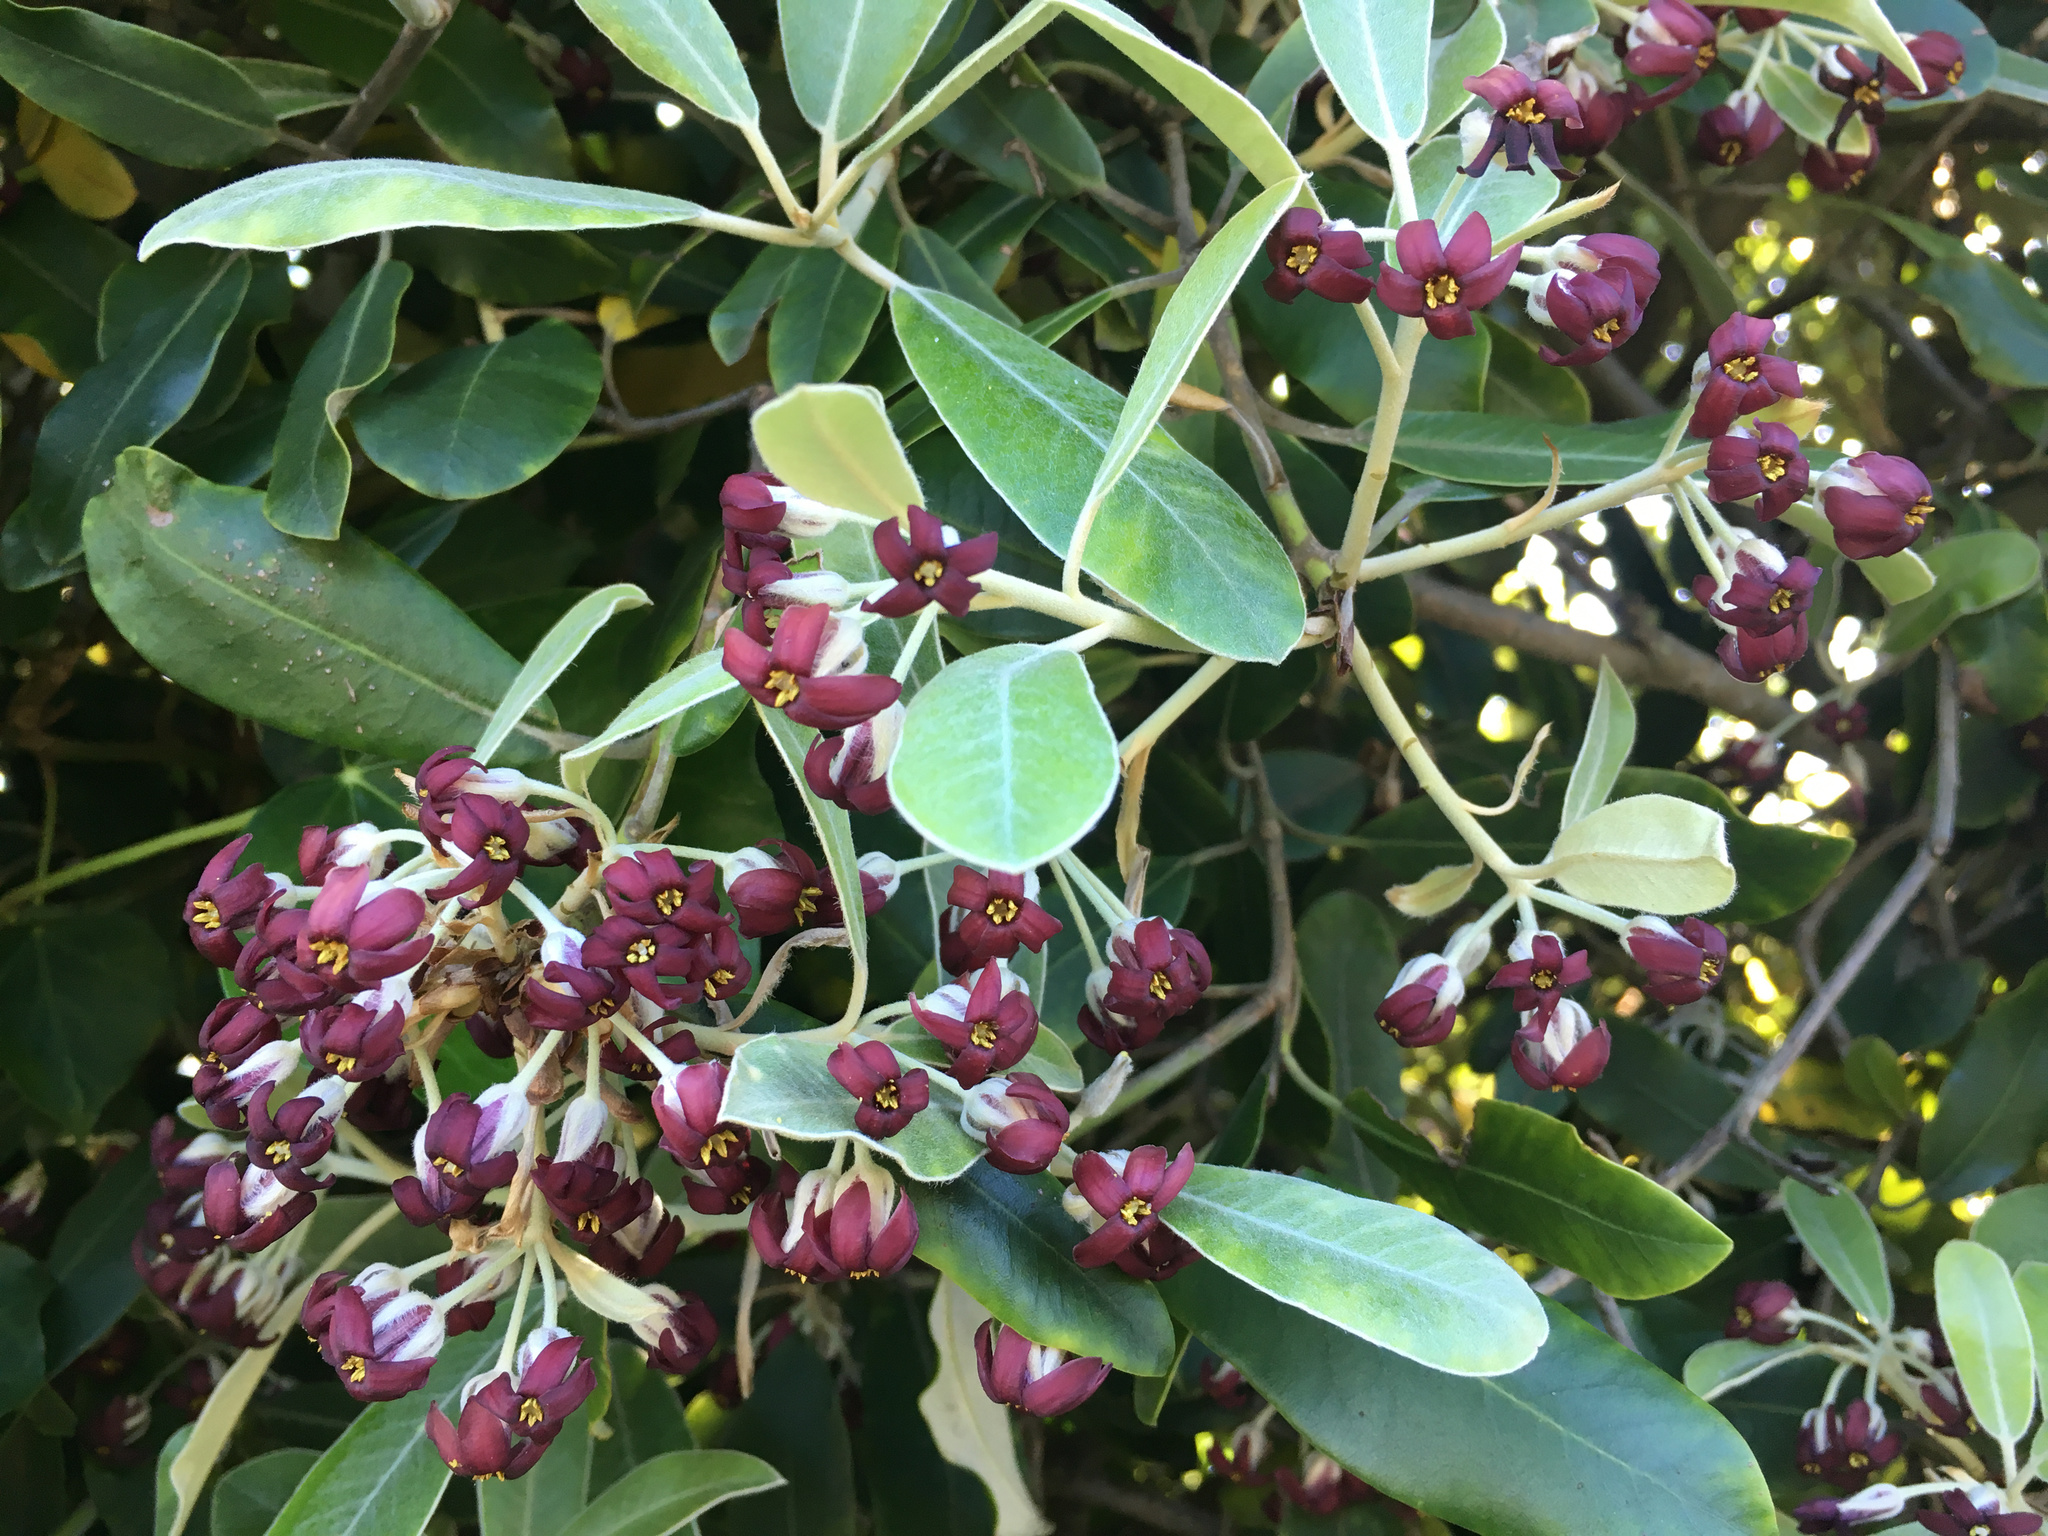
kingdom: Plantae
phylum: Tracheophyta
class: Magnoliopsida
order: Apiales
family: Pittosporaceae
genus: Pittosporum
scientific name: Pittosporum ralphii
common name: Ralph's desertwillow
